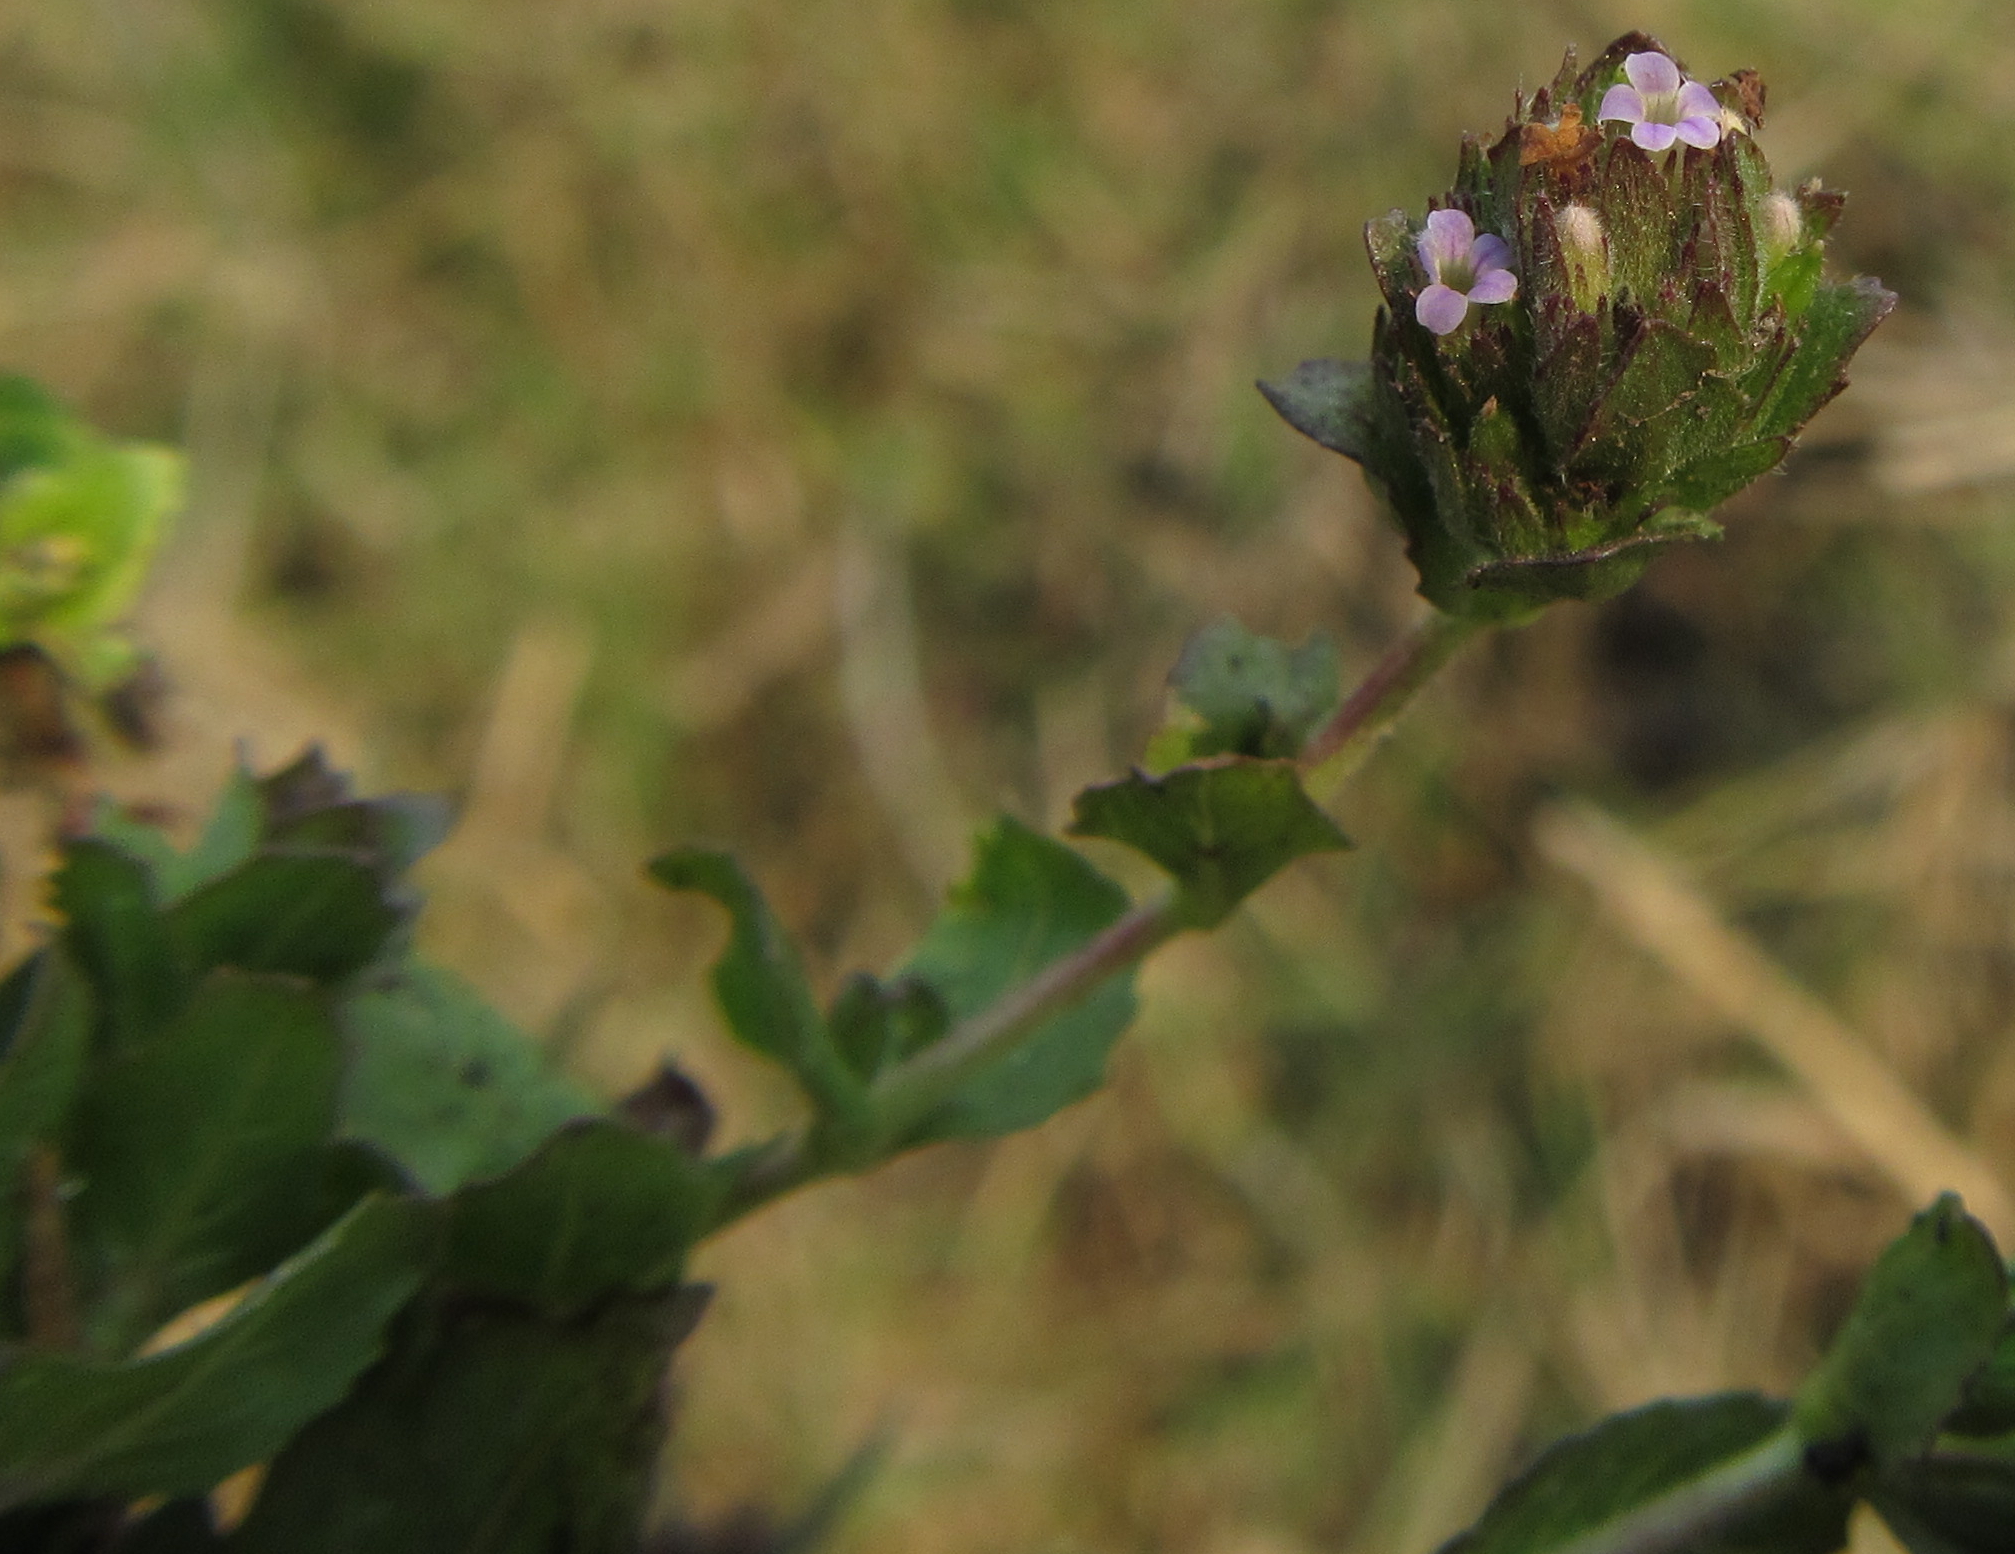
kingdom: Plantae
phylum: Tracheophyta
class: Magnoliopsida
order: Lamiales
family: Acanthaceae
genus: Hygrophila
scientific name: Hygrophila abyssinica
